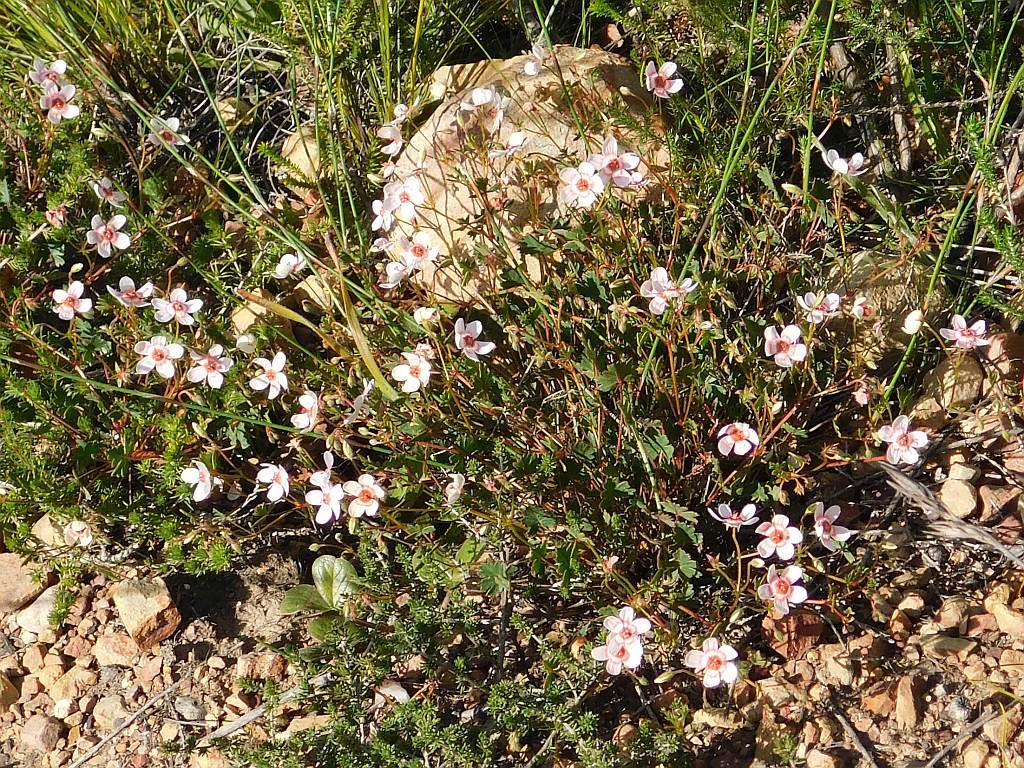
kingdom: Plantae
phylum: Tracheophyta
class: Magnoliopsida
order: Geraniales
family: Geraniaceae
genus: Pelargonium
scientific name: Pelargonium incarnatum
